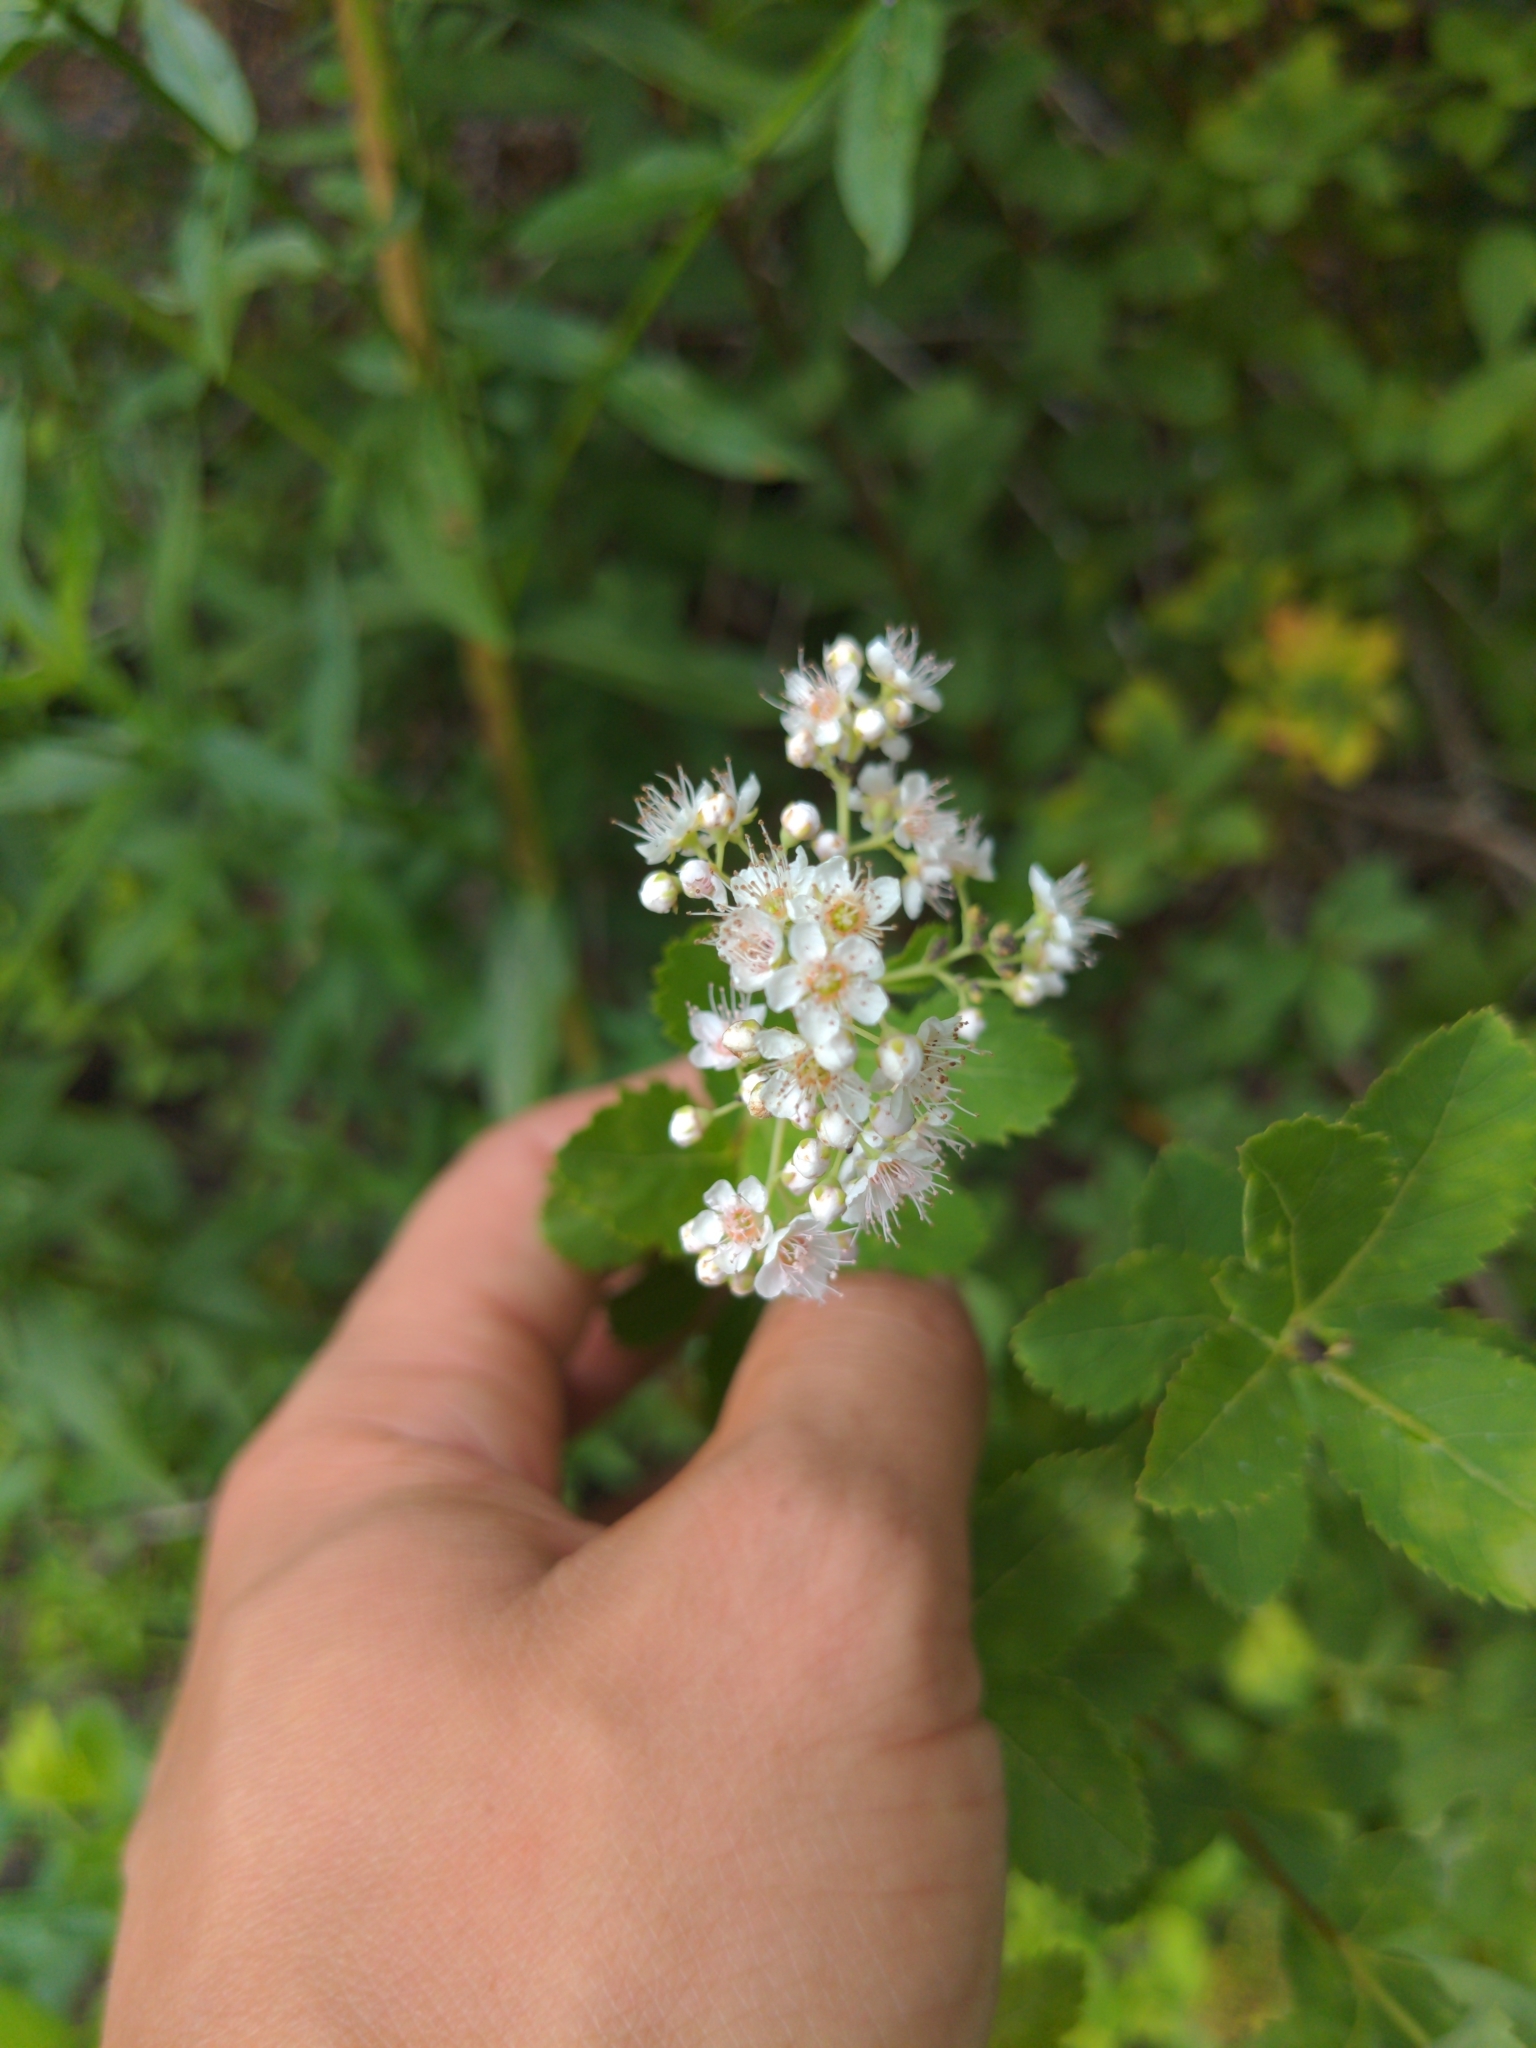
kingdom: Plantae
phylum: Tracheophyta
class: Magnoliopsida
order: Rosales
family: Rosaceae
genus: Spiraea
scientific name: Spiraea alba
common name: Pale bridewort
